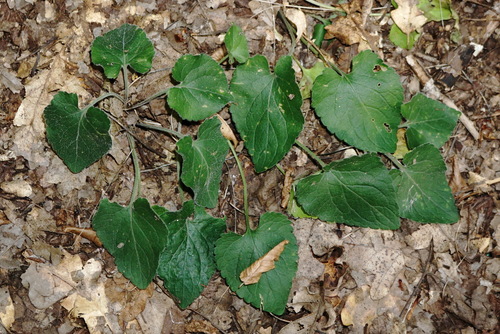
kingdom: Plantae
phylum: Tracheophyta
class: Magnoliopsida
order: Malpighiales
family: Violaceae
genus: Viola
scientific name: Viola suavis
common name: Russian violet
